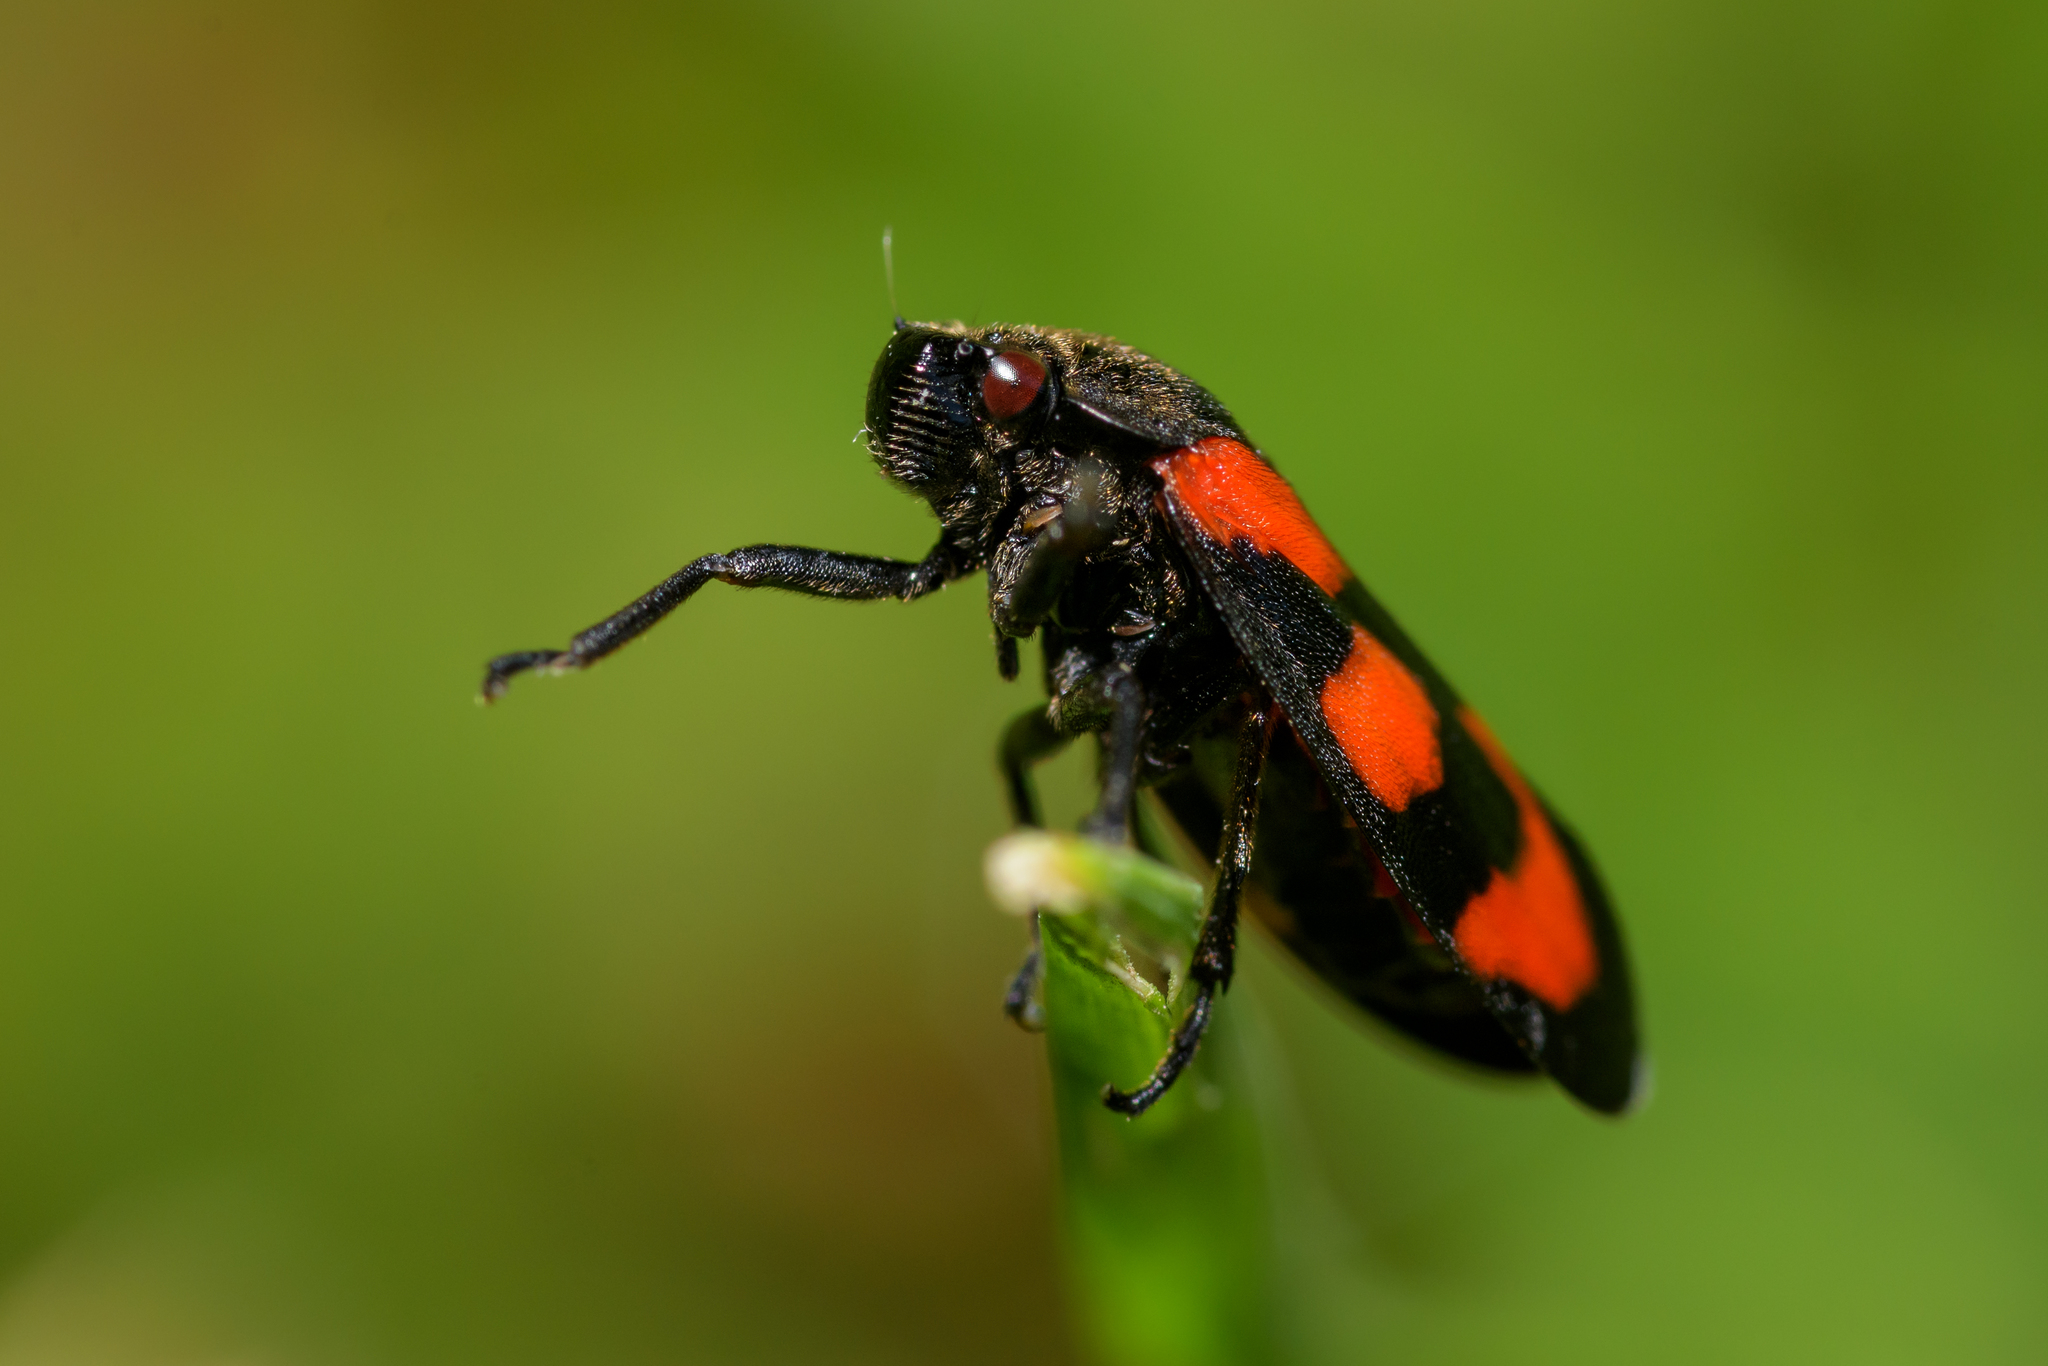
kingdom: Animalia
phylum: Arthropoda
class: Insecta
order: Hemiptera
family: Cercopidae
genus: Cercopis
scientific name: Cercopis vulnerata
